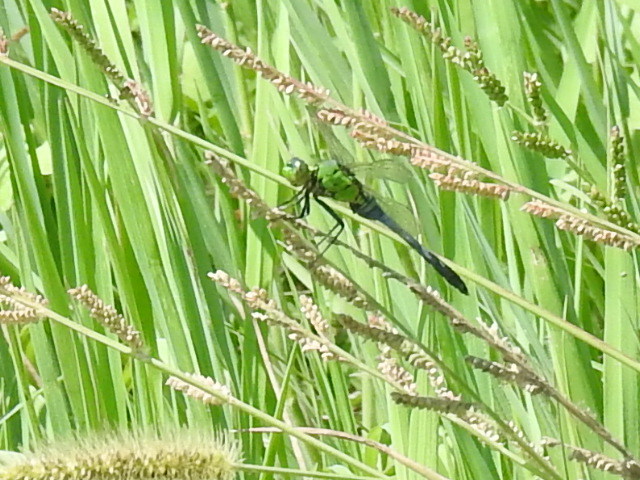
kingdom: Animalia
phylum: Arthropoda
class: Insecta
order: Odonata
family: Libellulidae
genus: Erythemis
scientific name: Erythemis simplicicollis
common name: Eastern pondhawk
